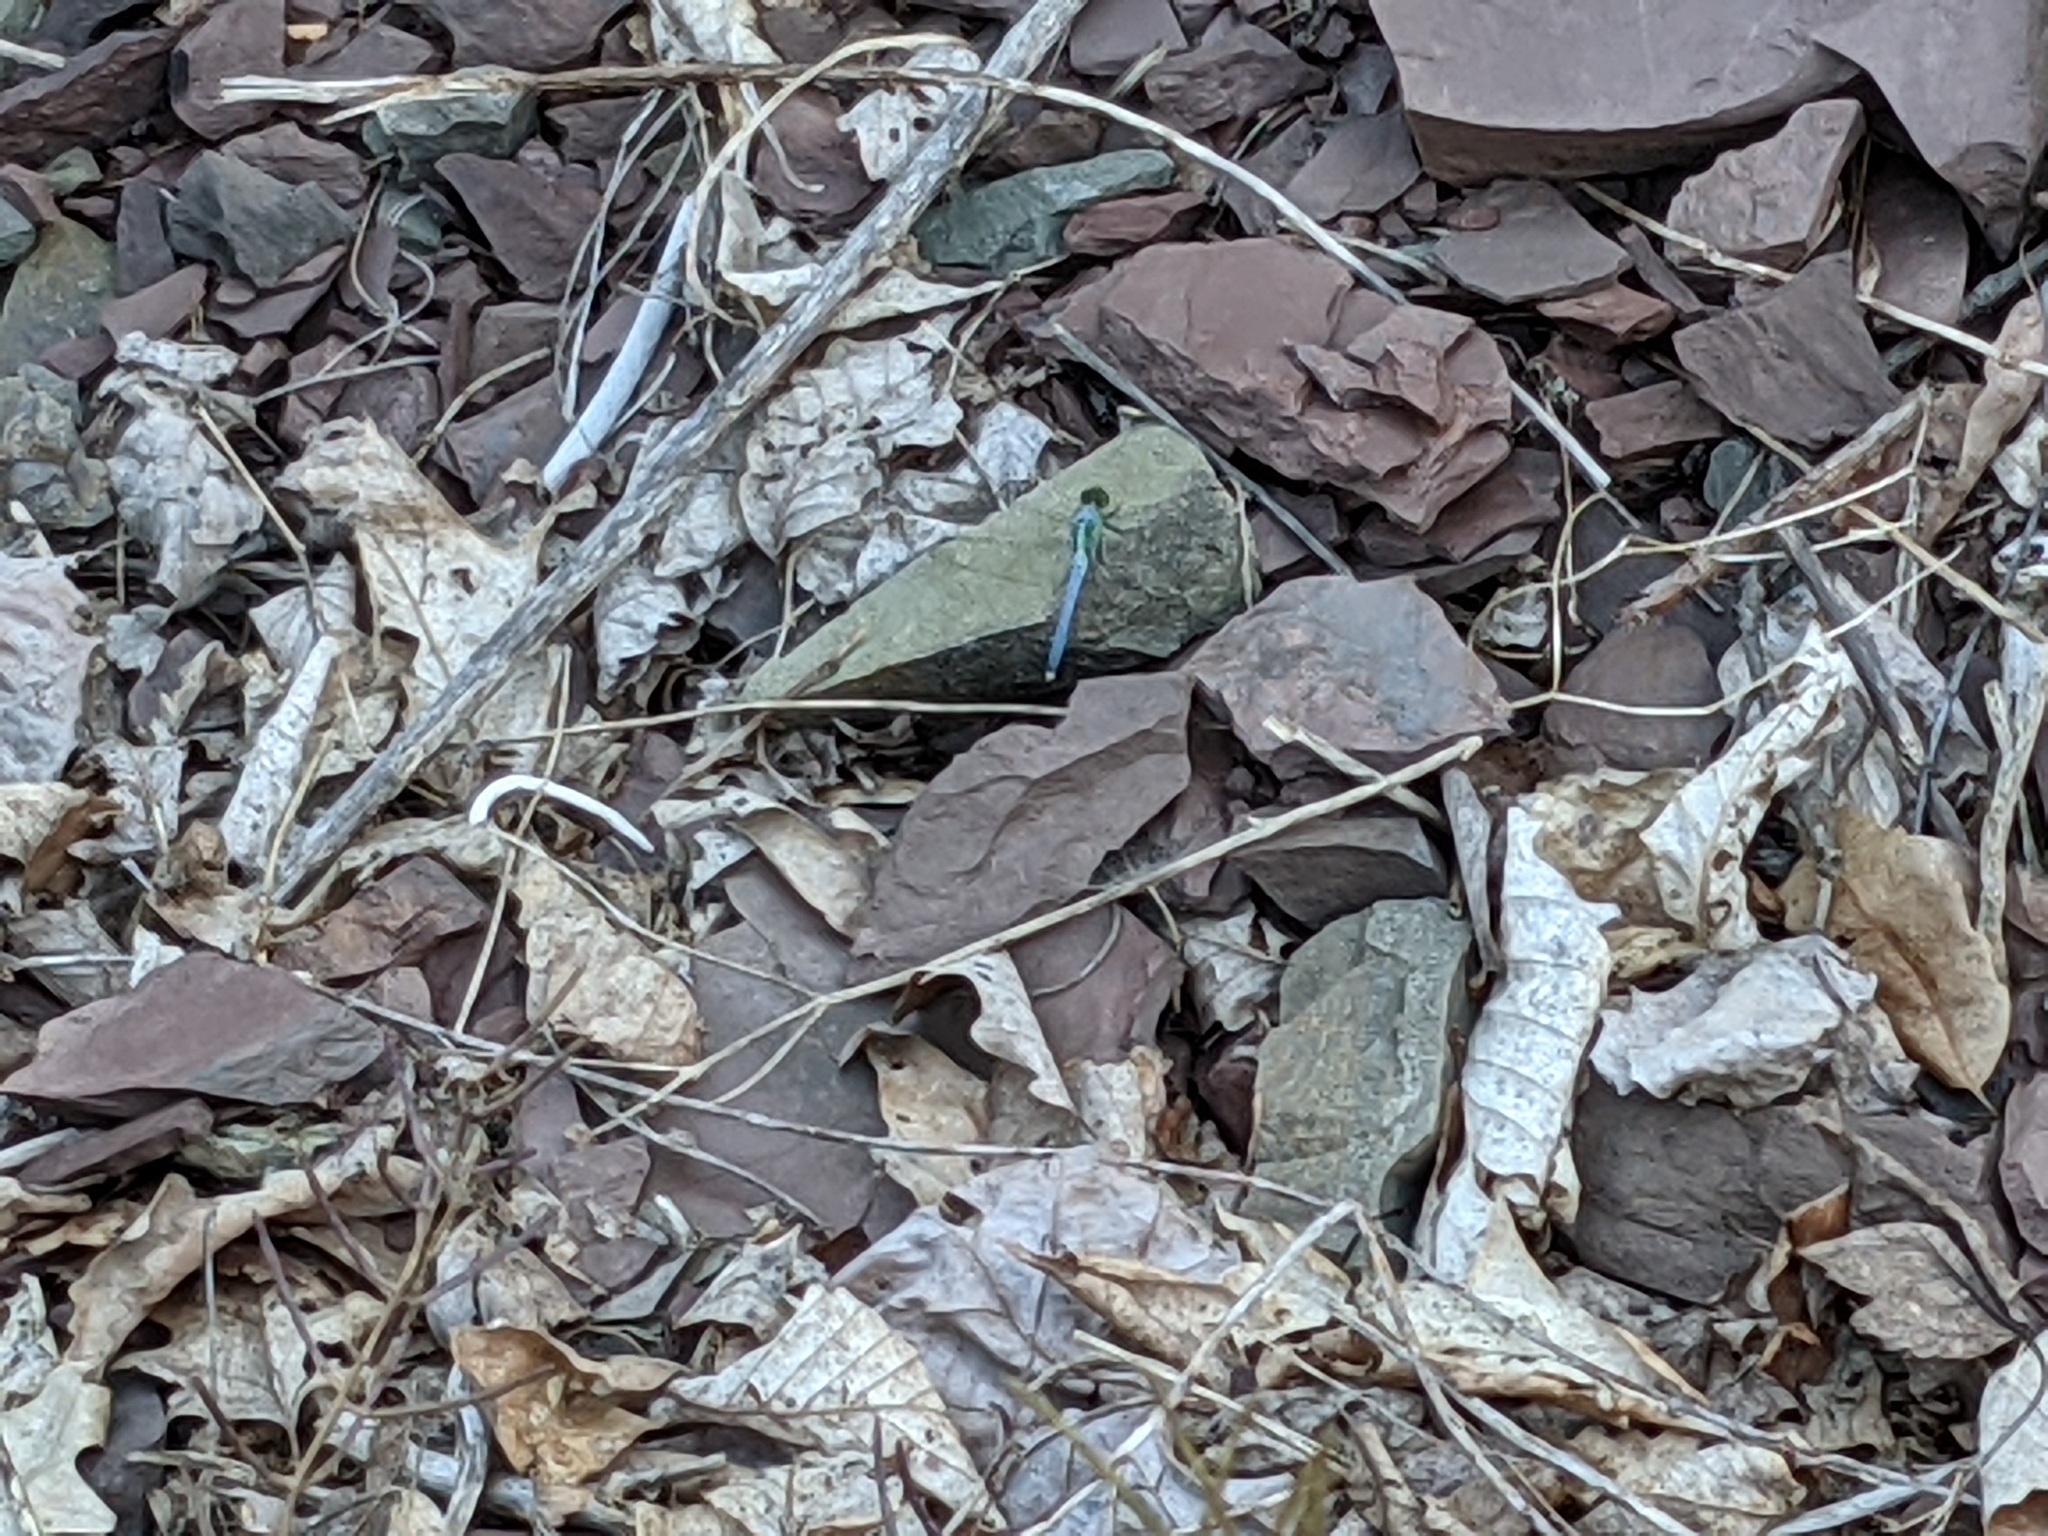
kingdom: Animalia
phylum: Arthropoda
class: Insecta
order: Odonata
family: Libellulidae
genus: Erythemis
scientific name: Erythemis simplicicollis
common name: Eastern pondhawk
